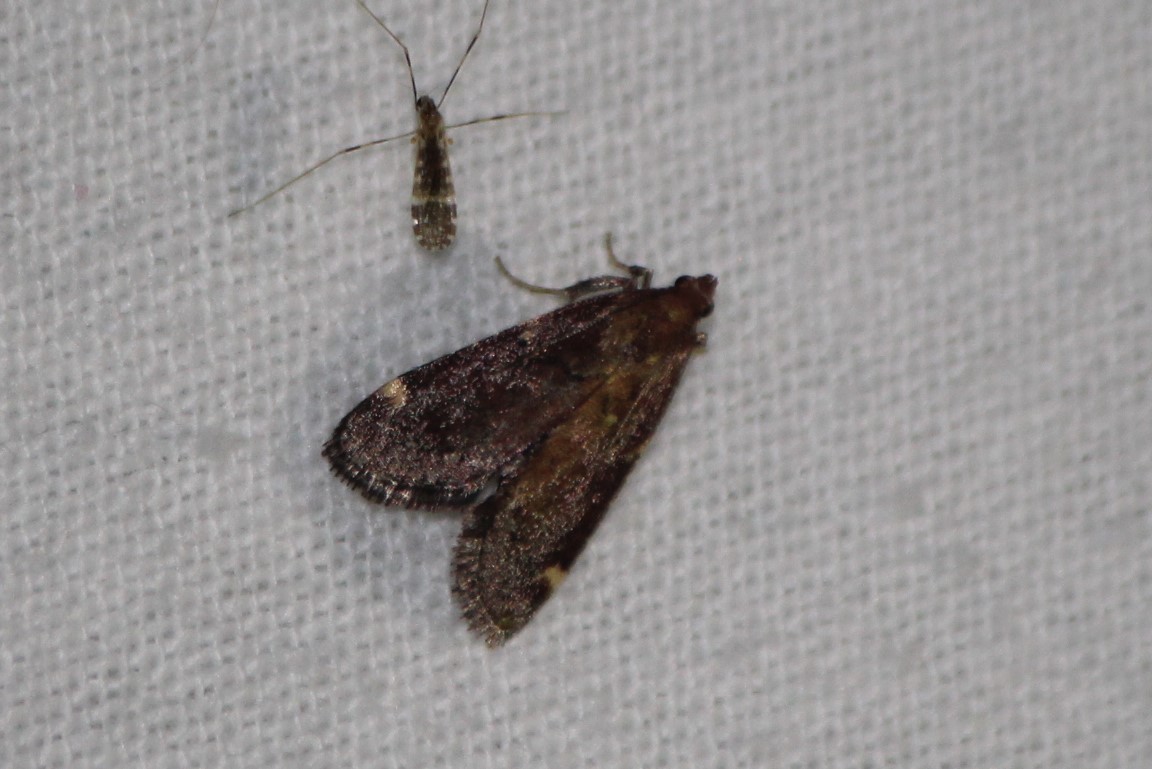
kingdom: Animalia
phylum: Arthropoda
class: Insecta
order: Lepidoptera
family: Pyralidae
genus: Hypsopygia
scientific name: Hypsopygia intermedialis
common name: Red-shawled moth
